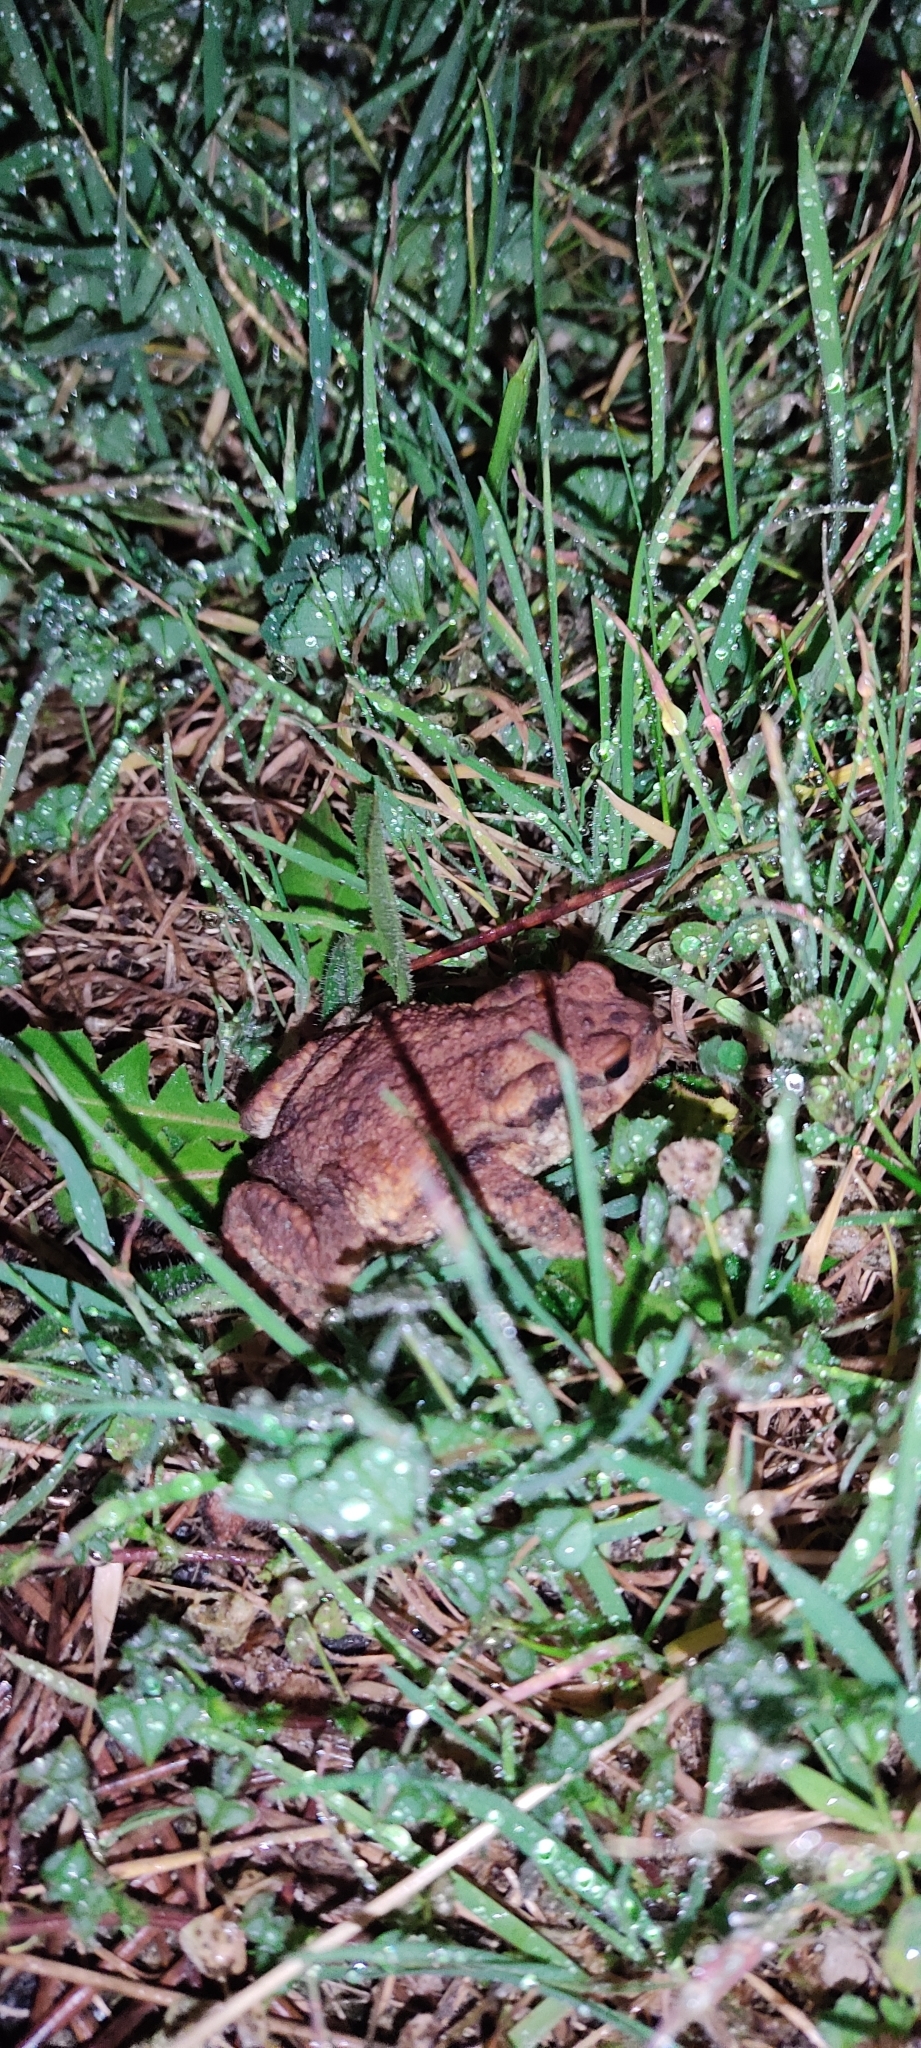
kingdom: Animalia
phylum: Chordata
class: Amphibia
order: Anura
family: Bufonidae
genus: Bufo
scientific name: Bufo spinosus
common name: Western common toad
